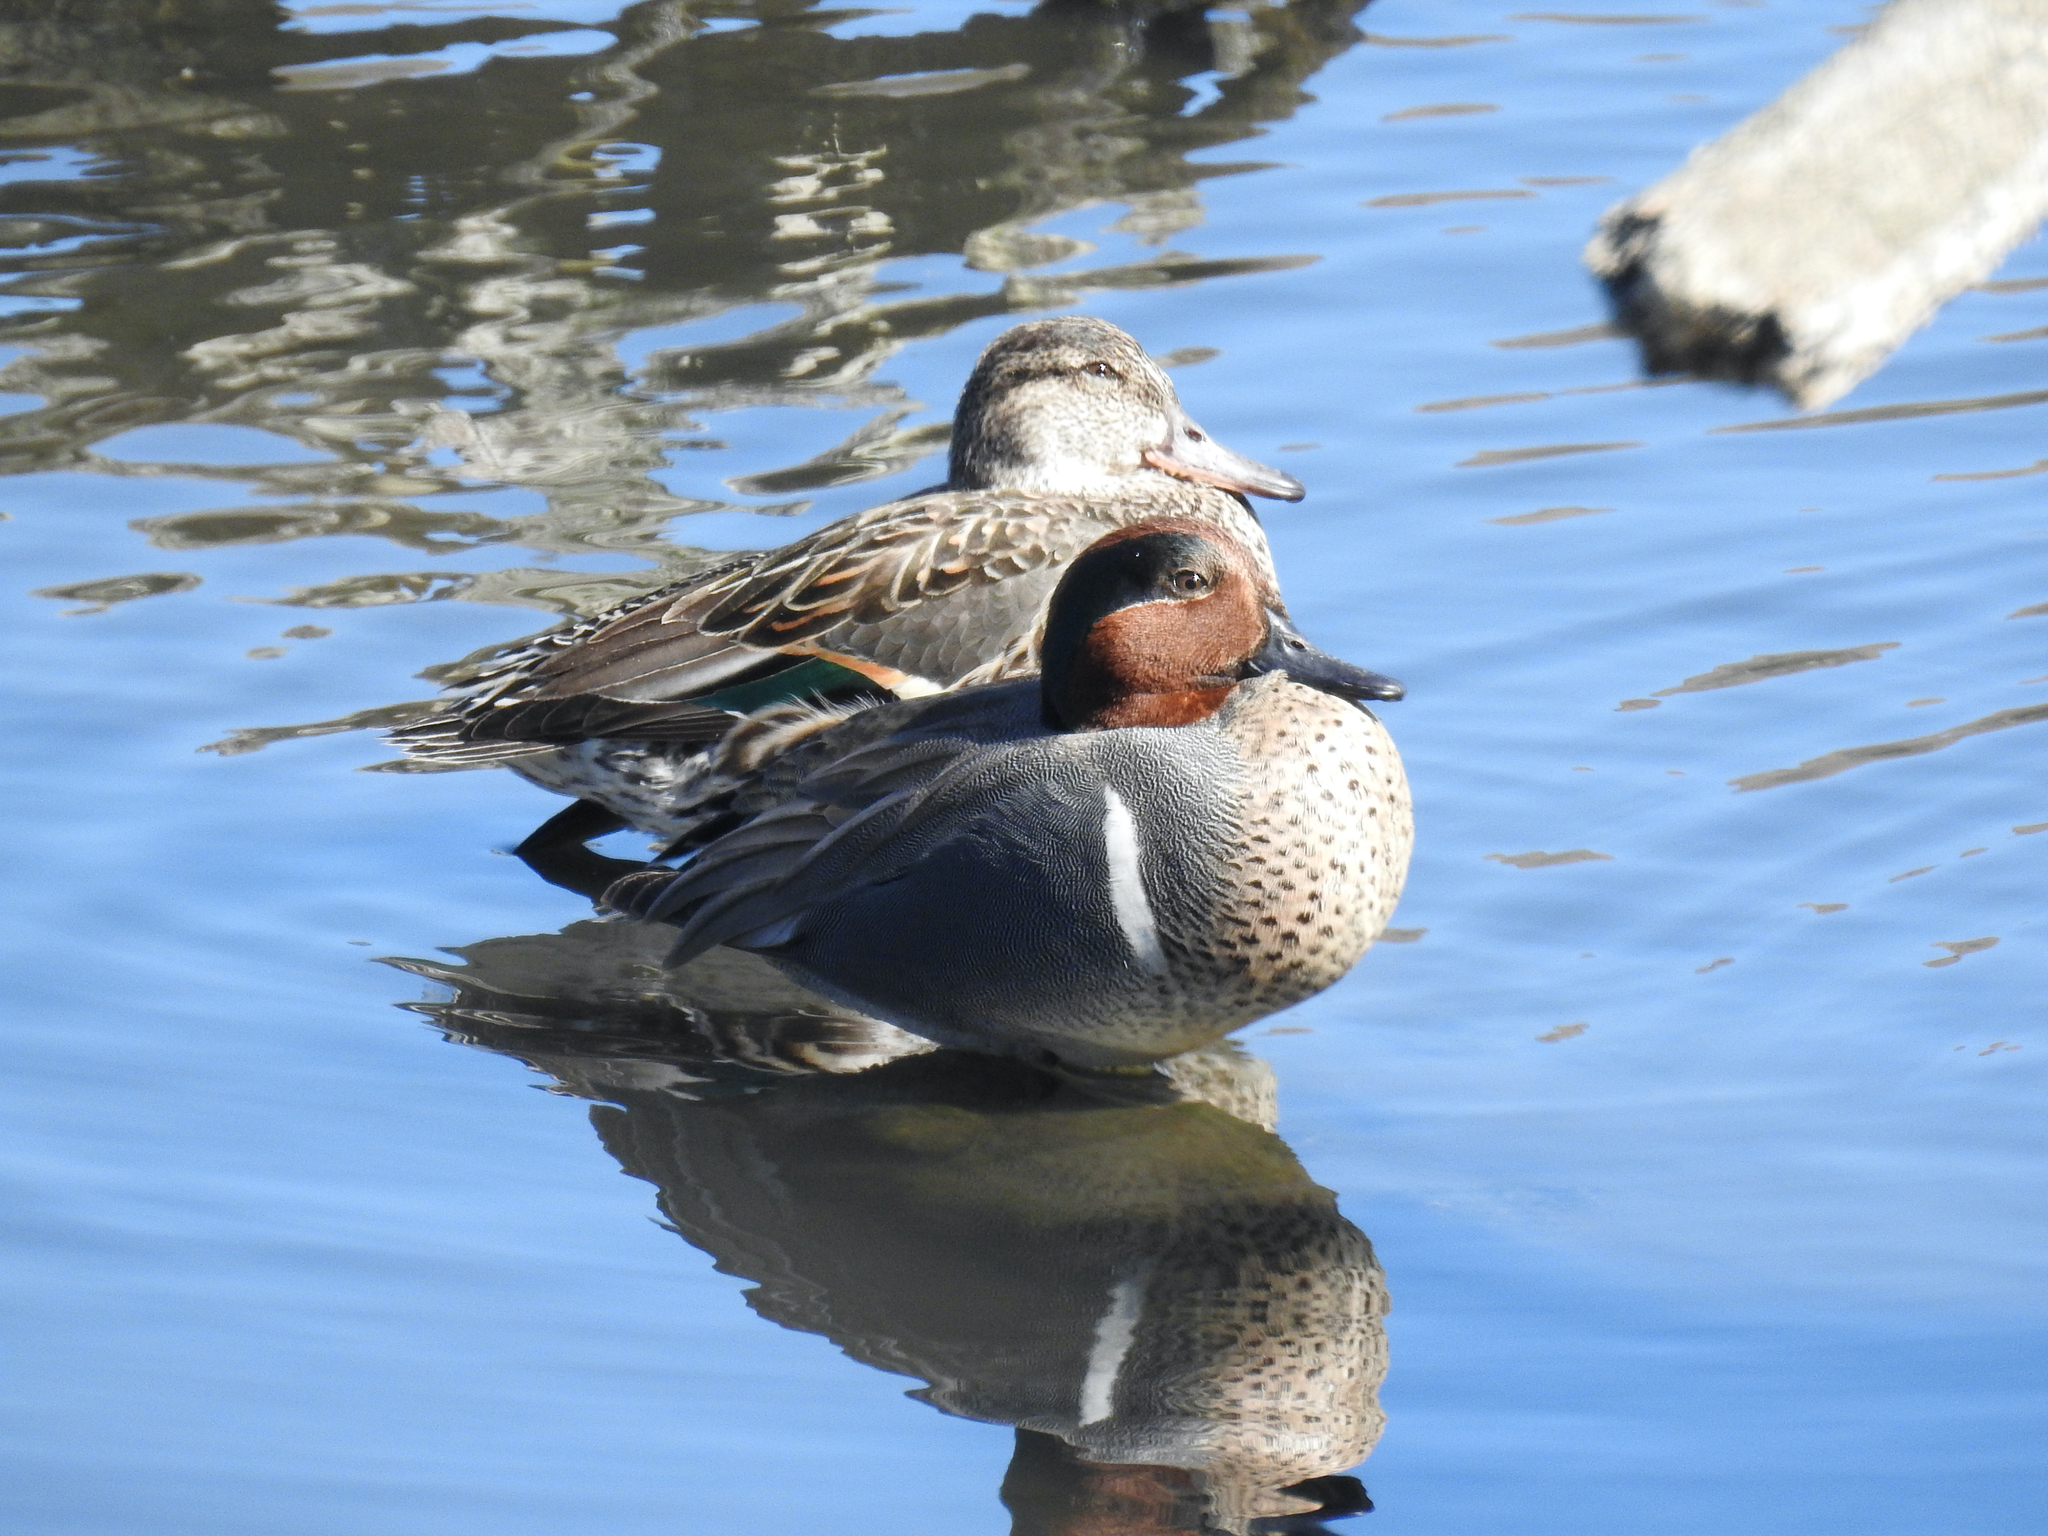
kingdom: Animalia
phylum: Chordata
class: Aves
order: Anseriformes
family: Anatidae
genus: Anas
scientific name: Anas crecca
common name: Eurasian teal
